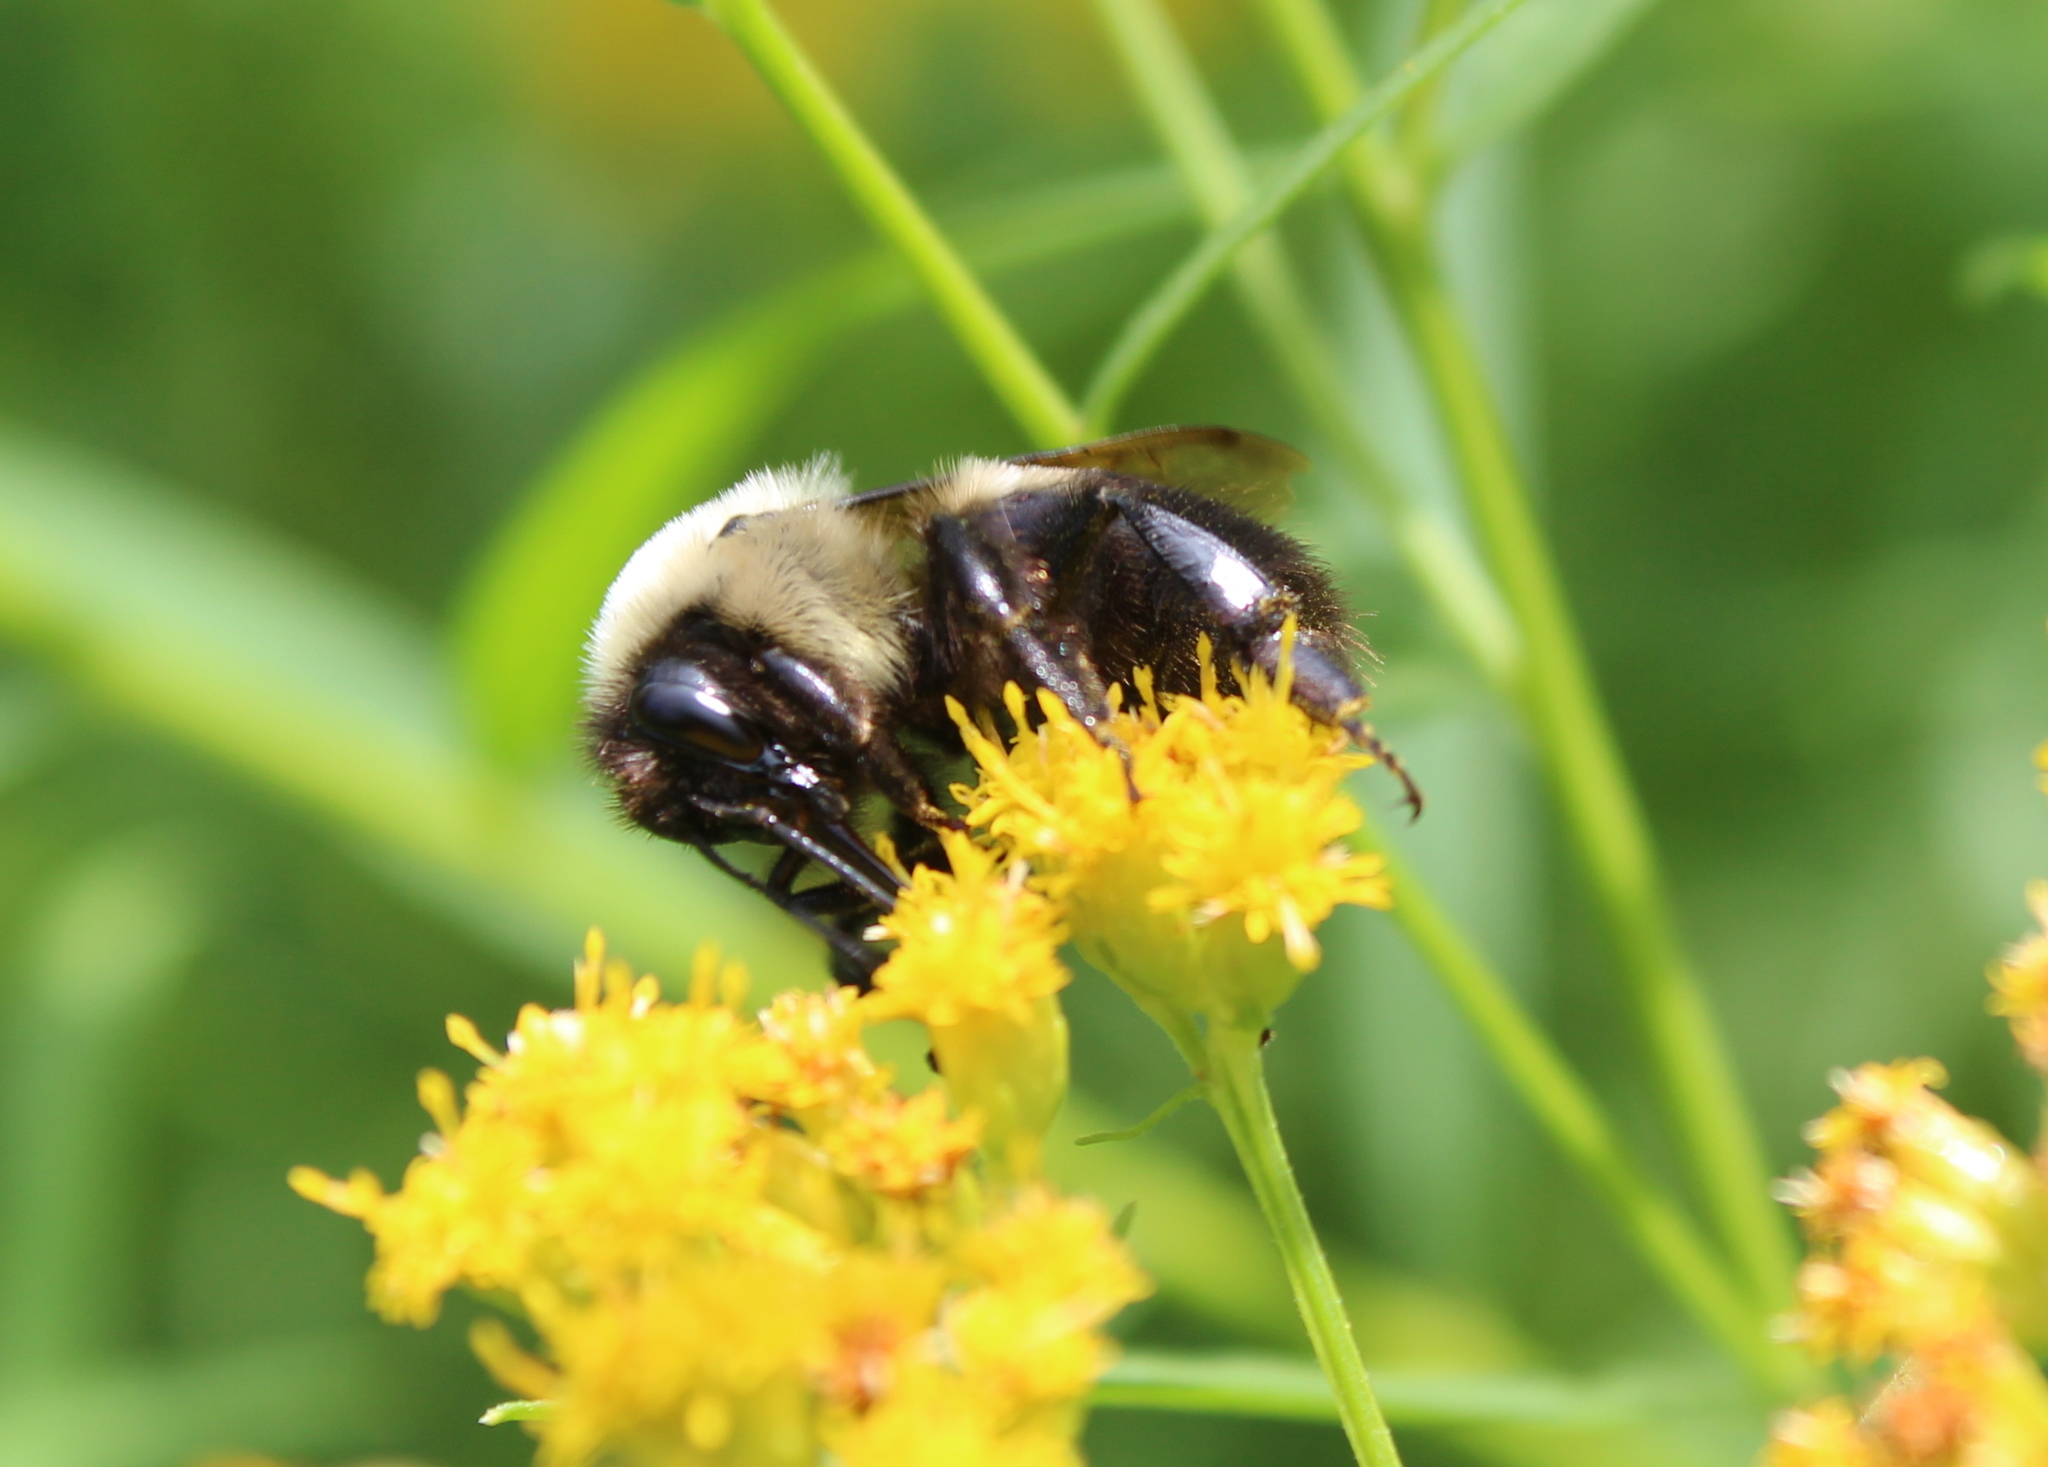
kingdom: Animalia
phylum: Arthropoda
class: Insecta
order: Hymenoptera
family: Apidae
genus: Bombus
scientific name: Bombus griseocollis
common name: Brown-belted bumble bee
